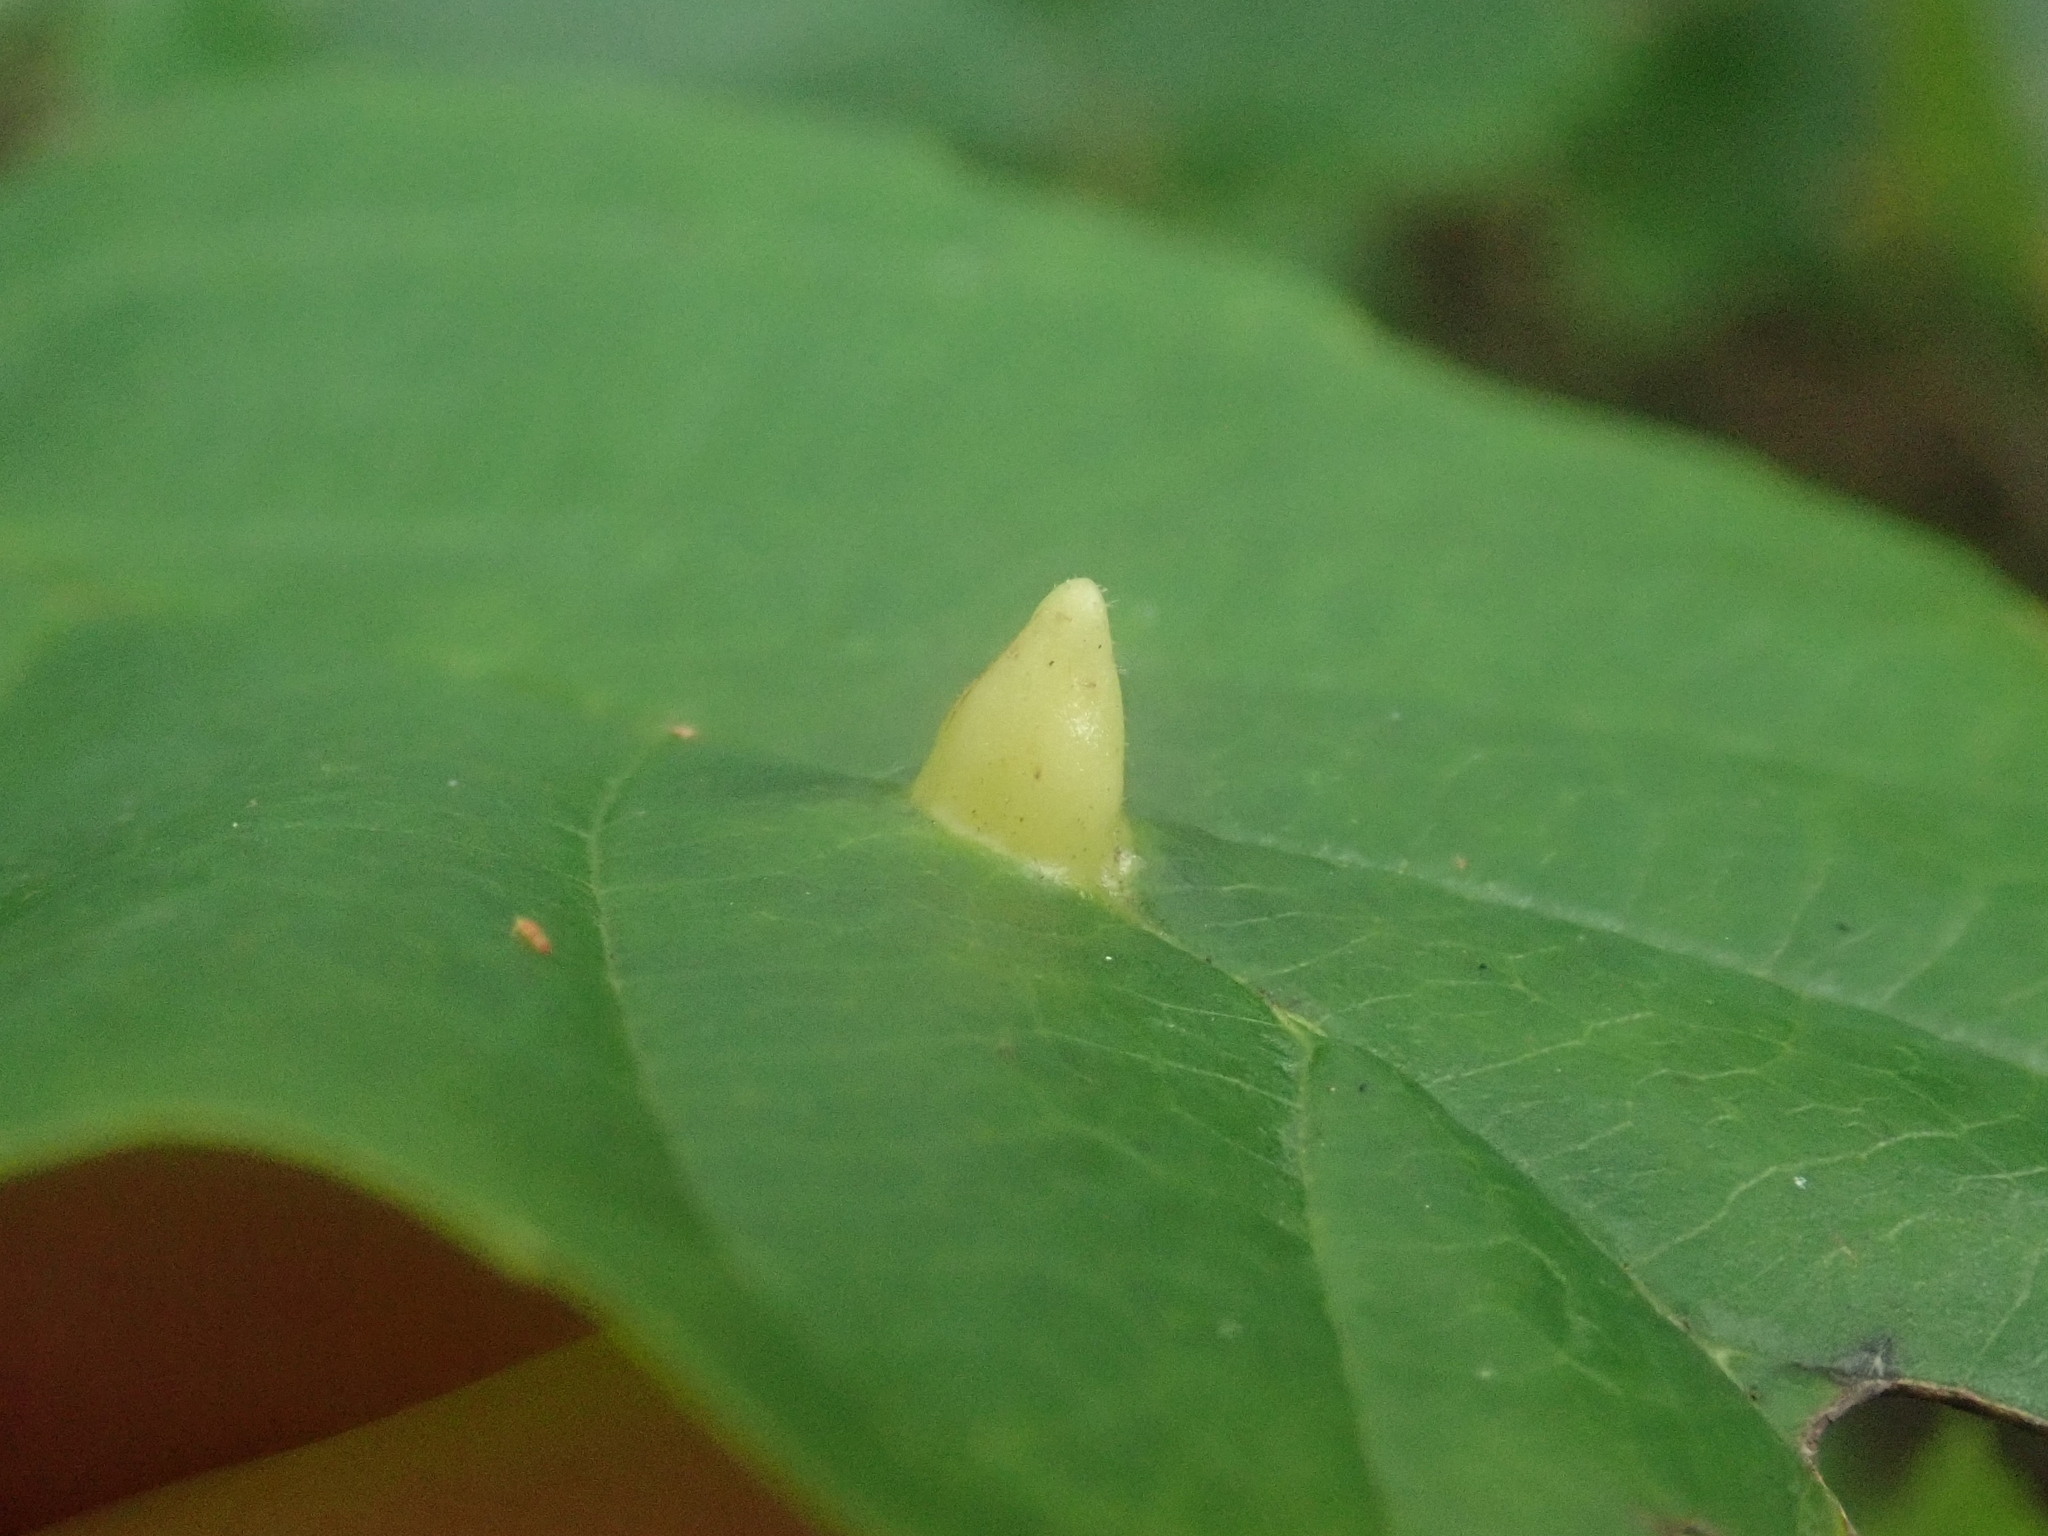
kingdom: Animalia
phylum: Arthropoda
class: Insecta
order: Hemiptera
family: Aphididae
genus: Hormaphis
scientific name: Hormaphis hamamelidis
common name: Witch-hazel cone gall aphid
